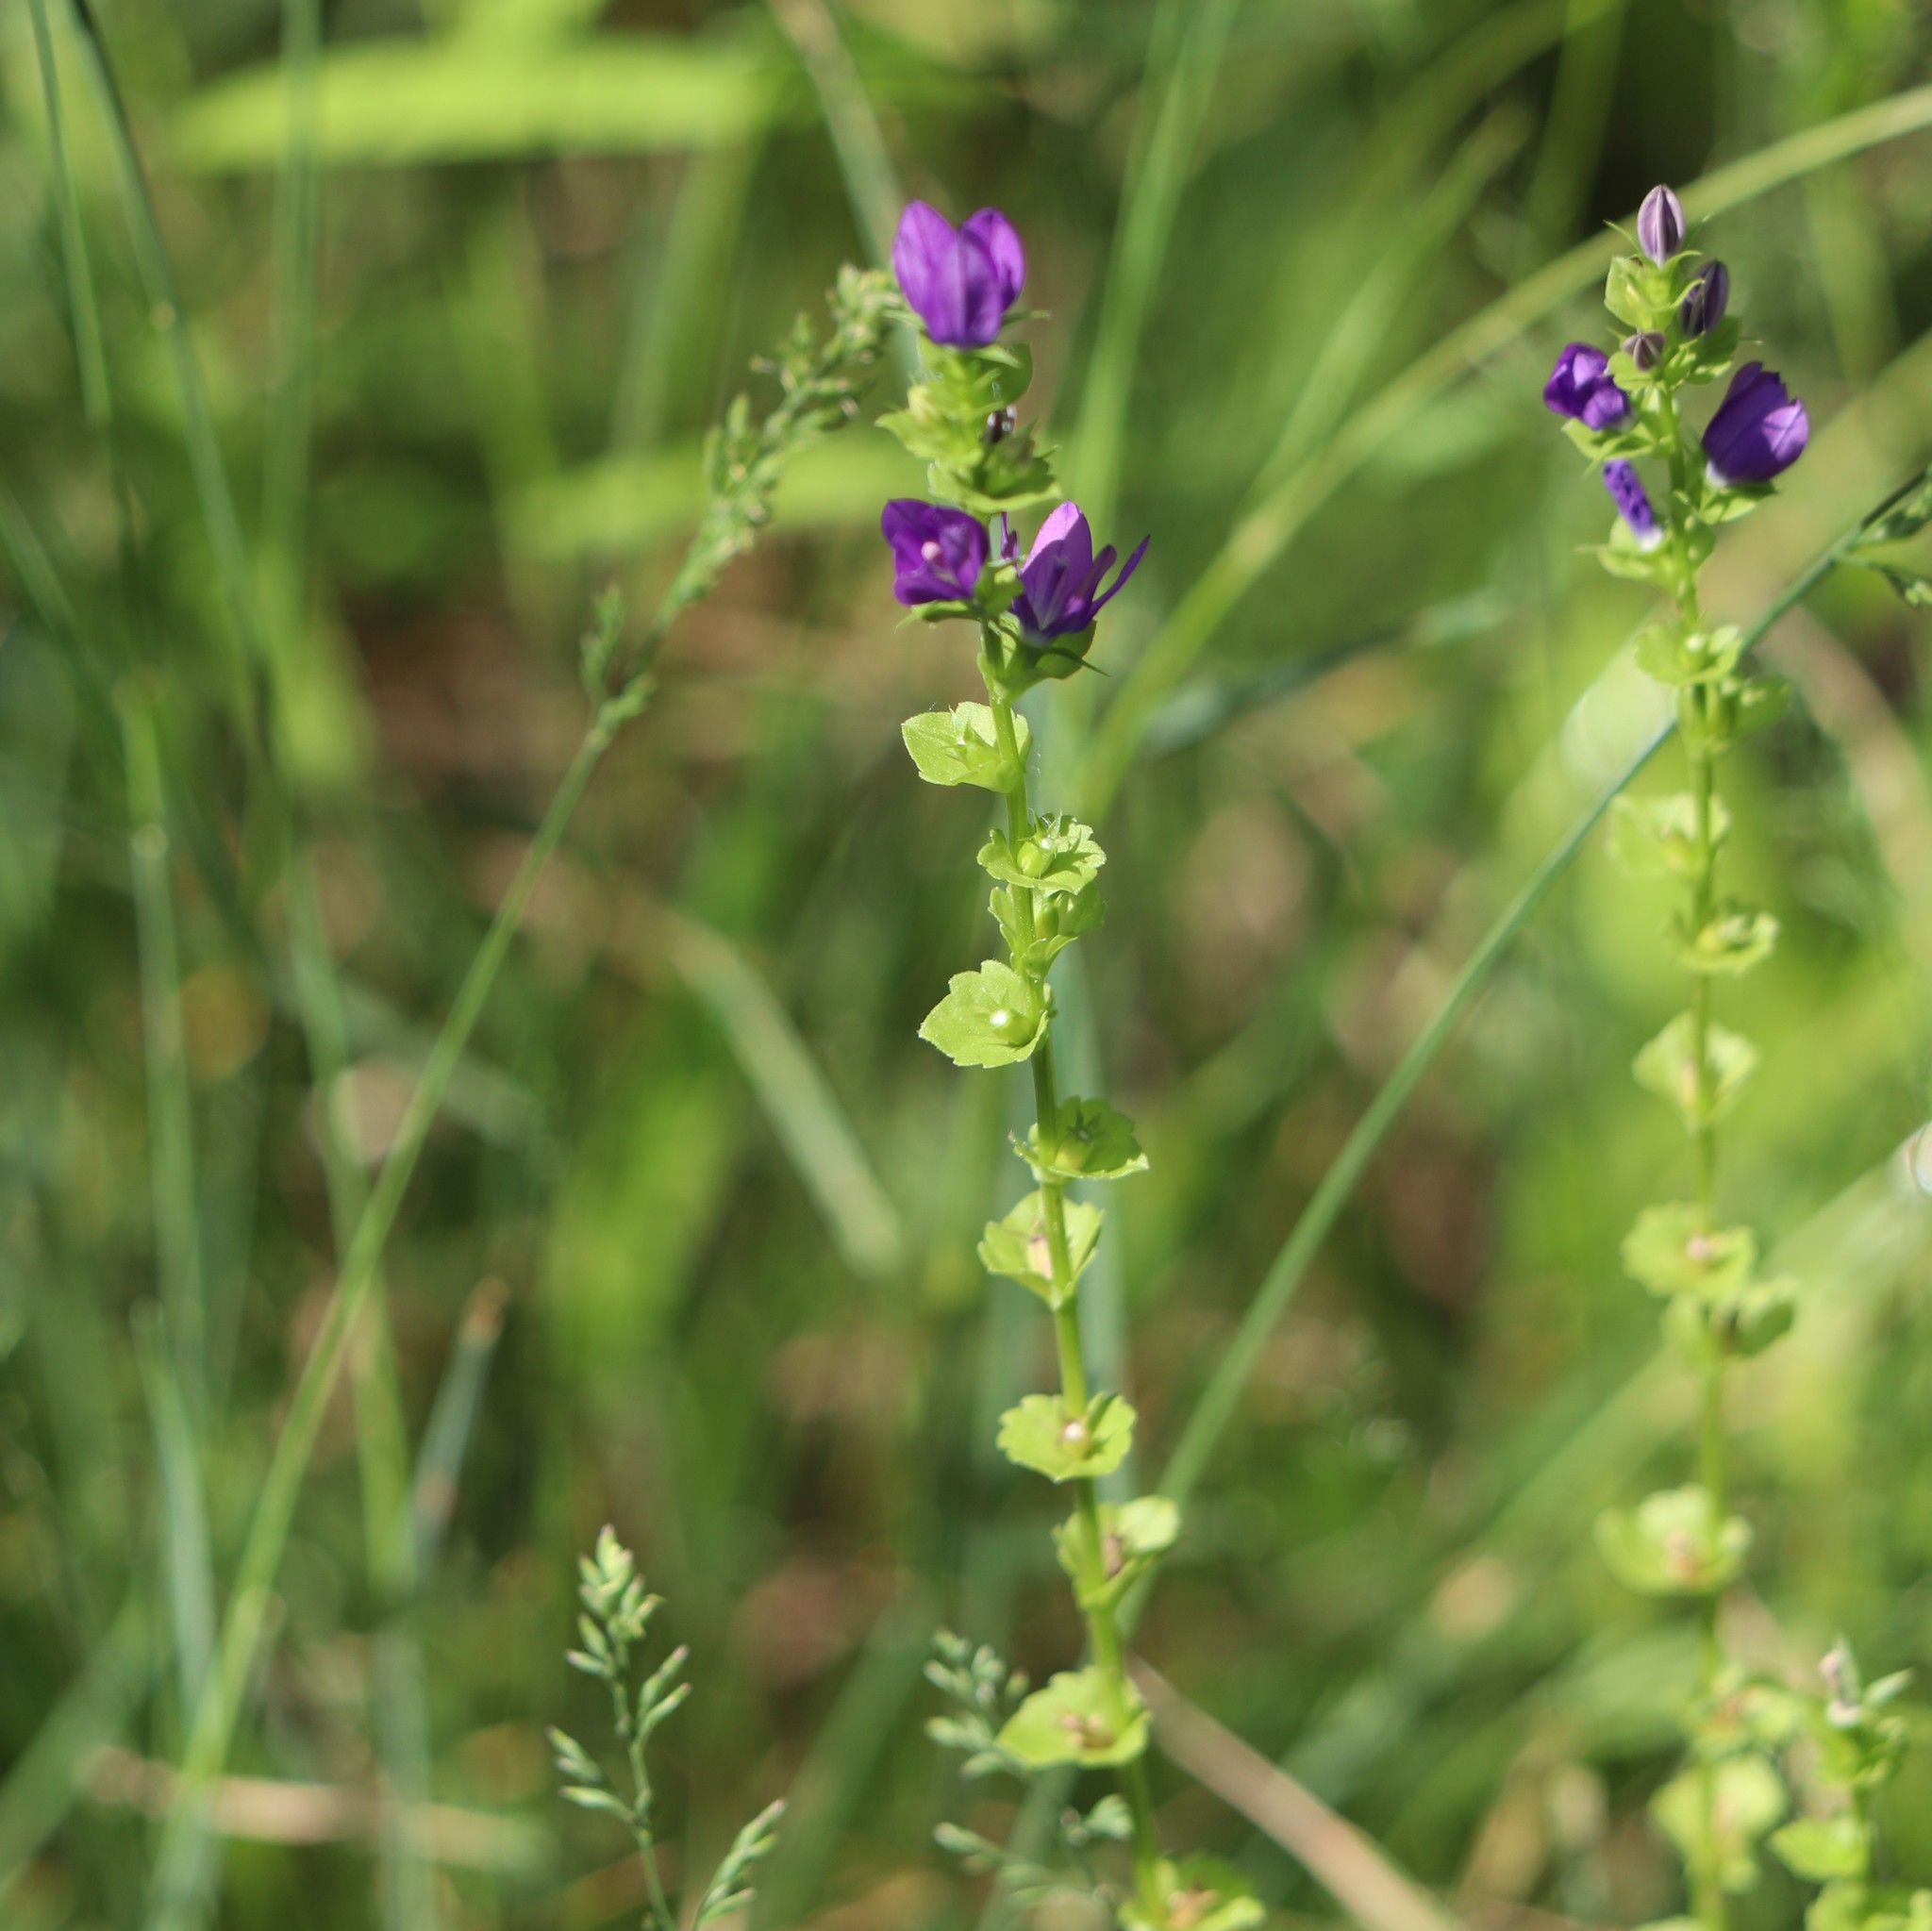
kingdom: Plantae
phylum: Tracheophyta
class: Magnoliopsida
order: Asterales
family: Campanulaceae
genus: Triodanis
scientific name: Triodanis perfoliata
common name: Clasping venus' looking-glass
